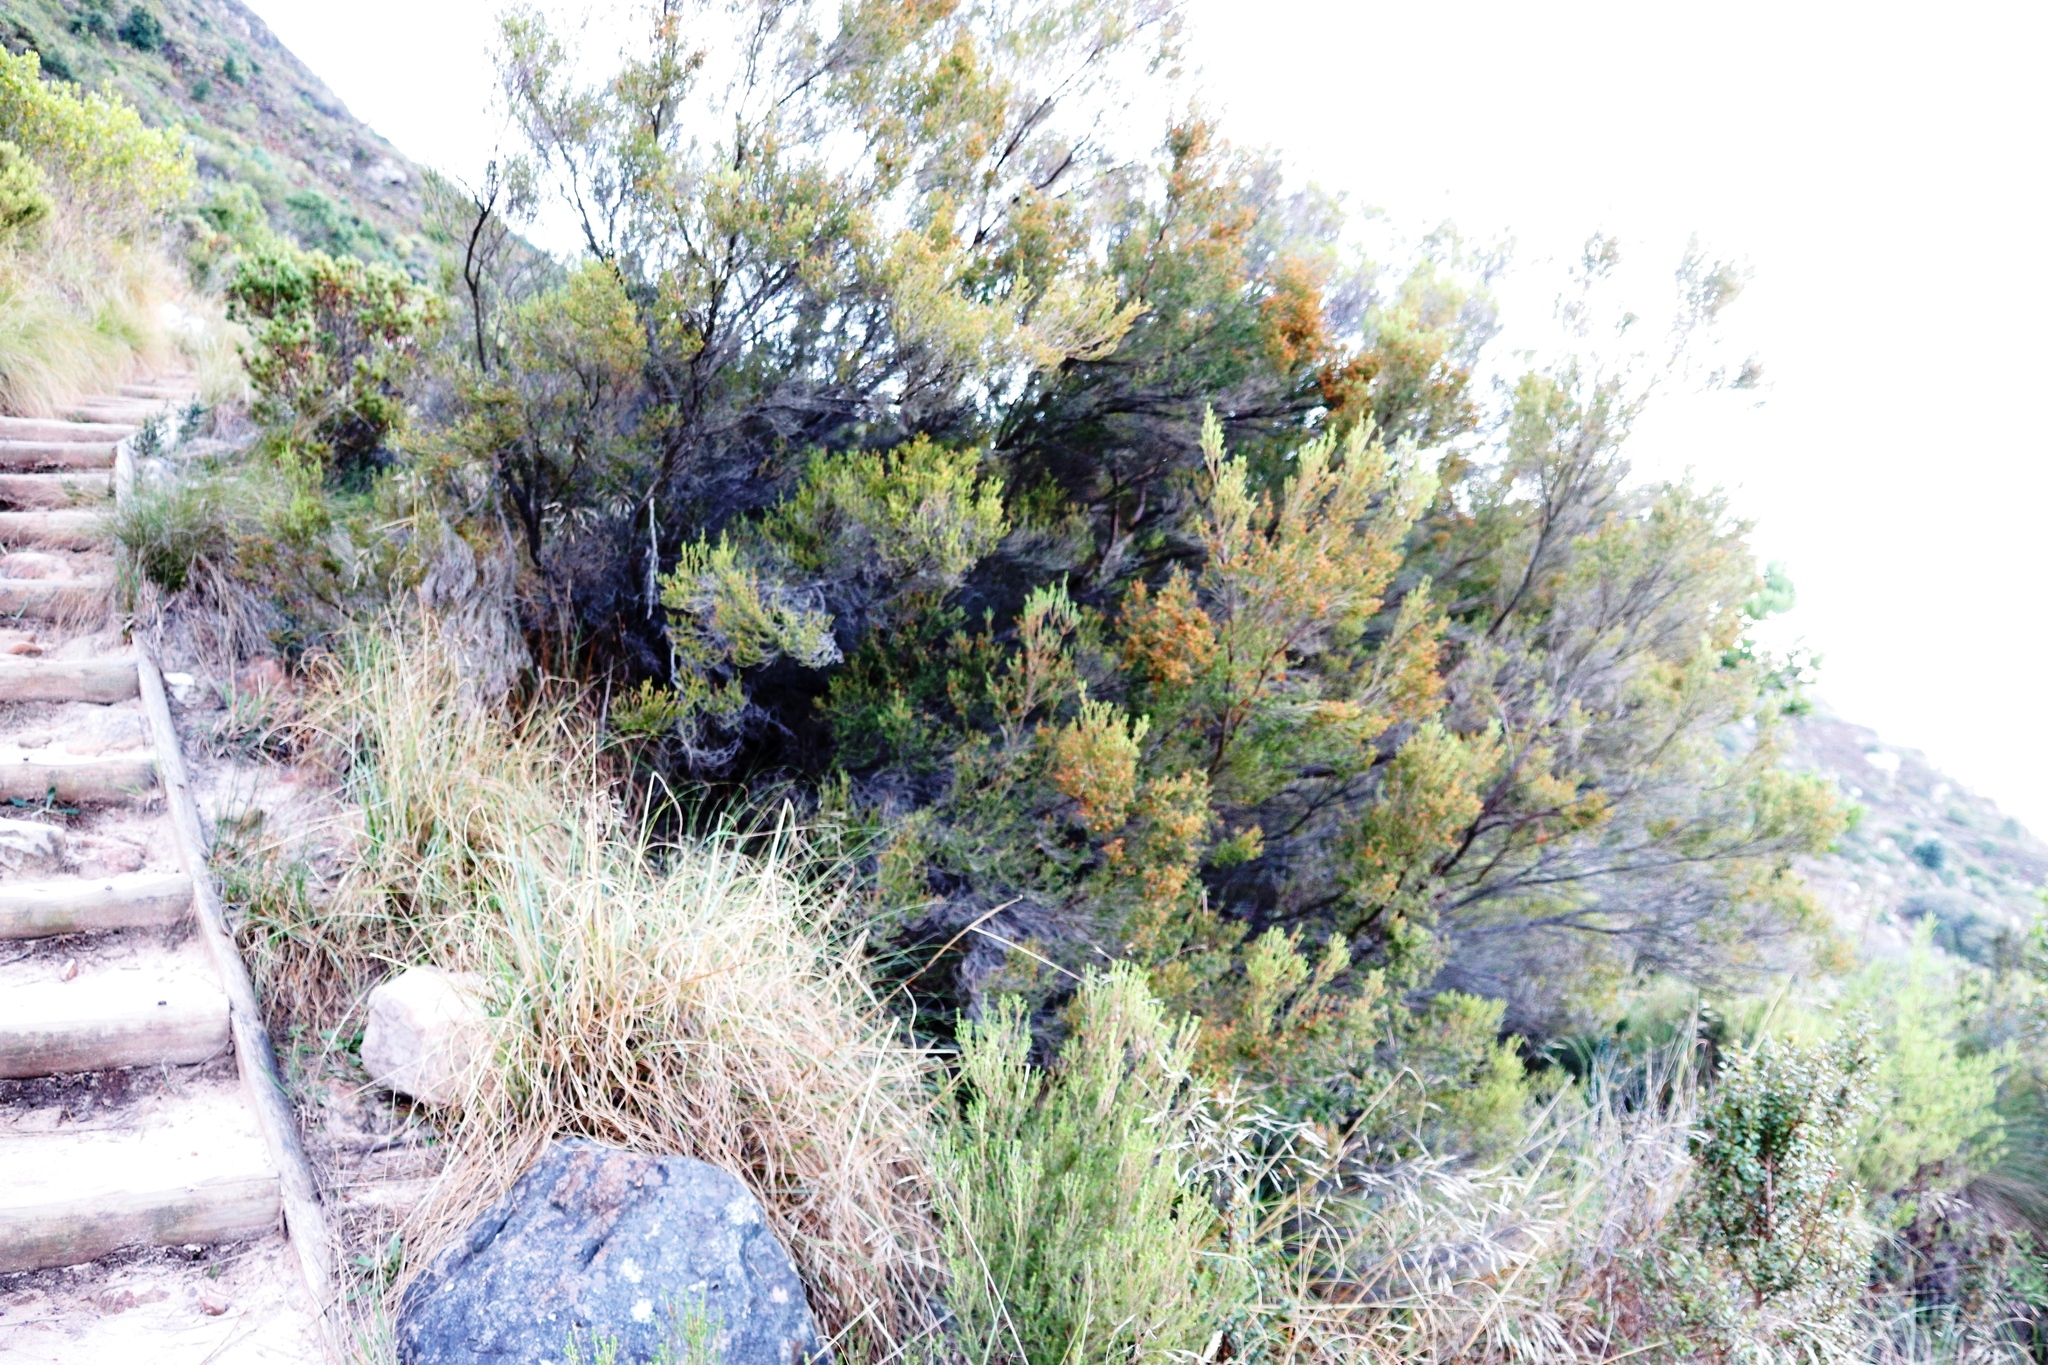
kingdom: Plantae
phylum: Tracheophyta
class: Magnoliopsida
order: Ericales
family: Ericaceae
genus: Erica
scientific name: Erica tristis
